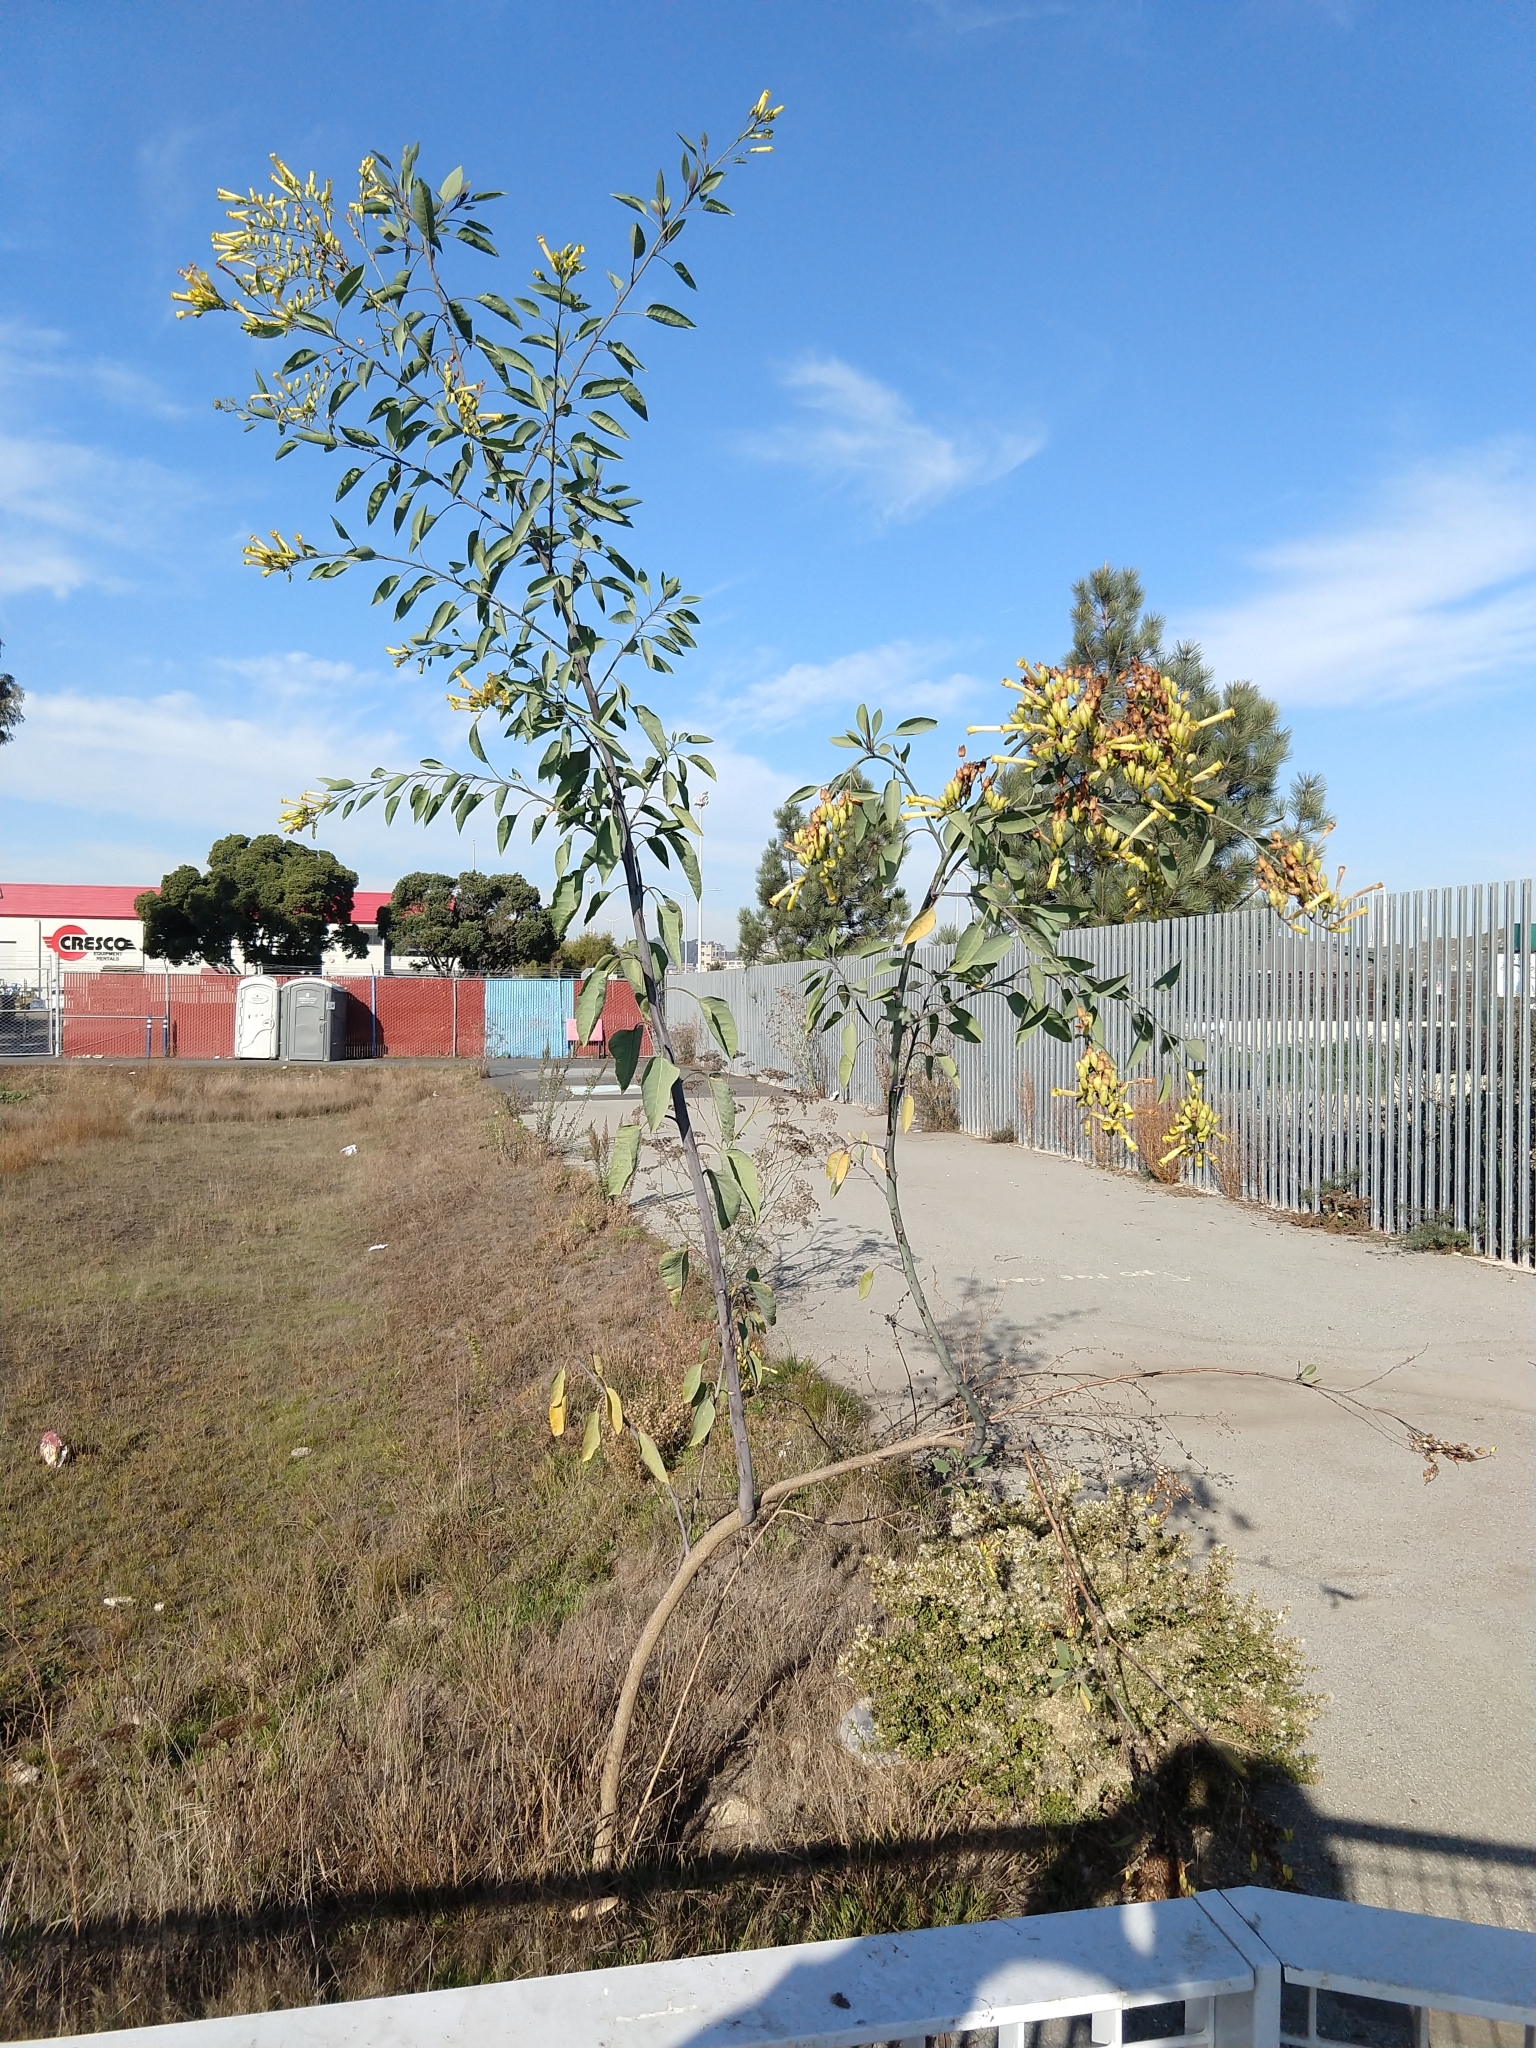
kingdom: Plantae
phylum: Tracheophyta
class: Magnoliopsida
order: Solanales
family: Solanaceae
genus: Nicotiana
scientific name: Nicotiana glauca
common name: Tree tobacco
